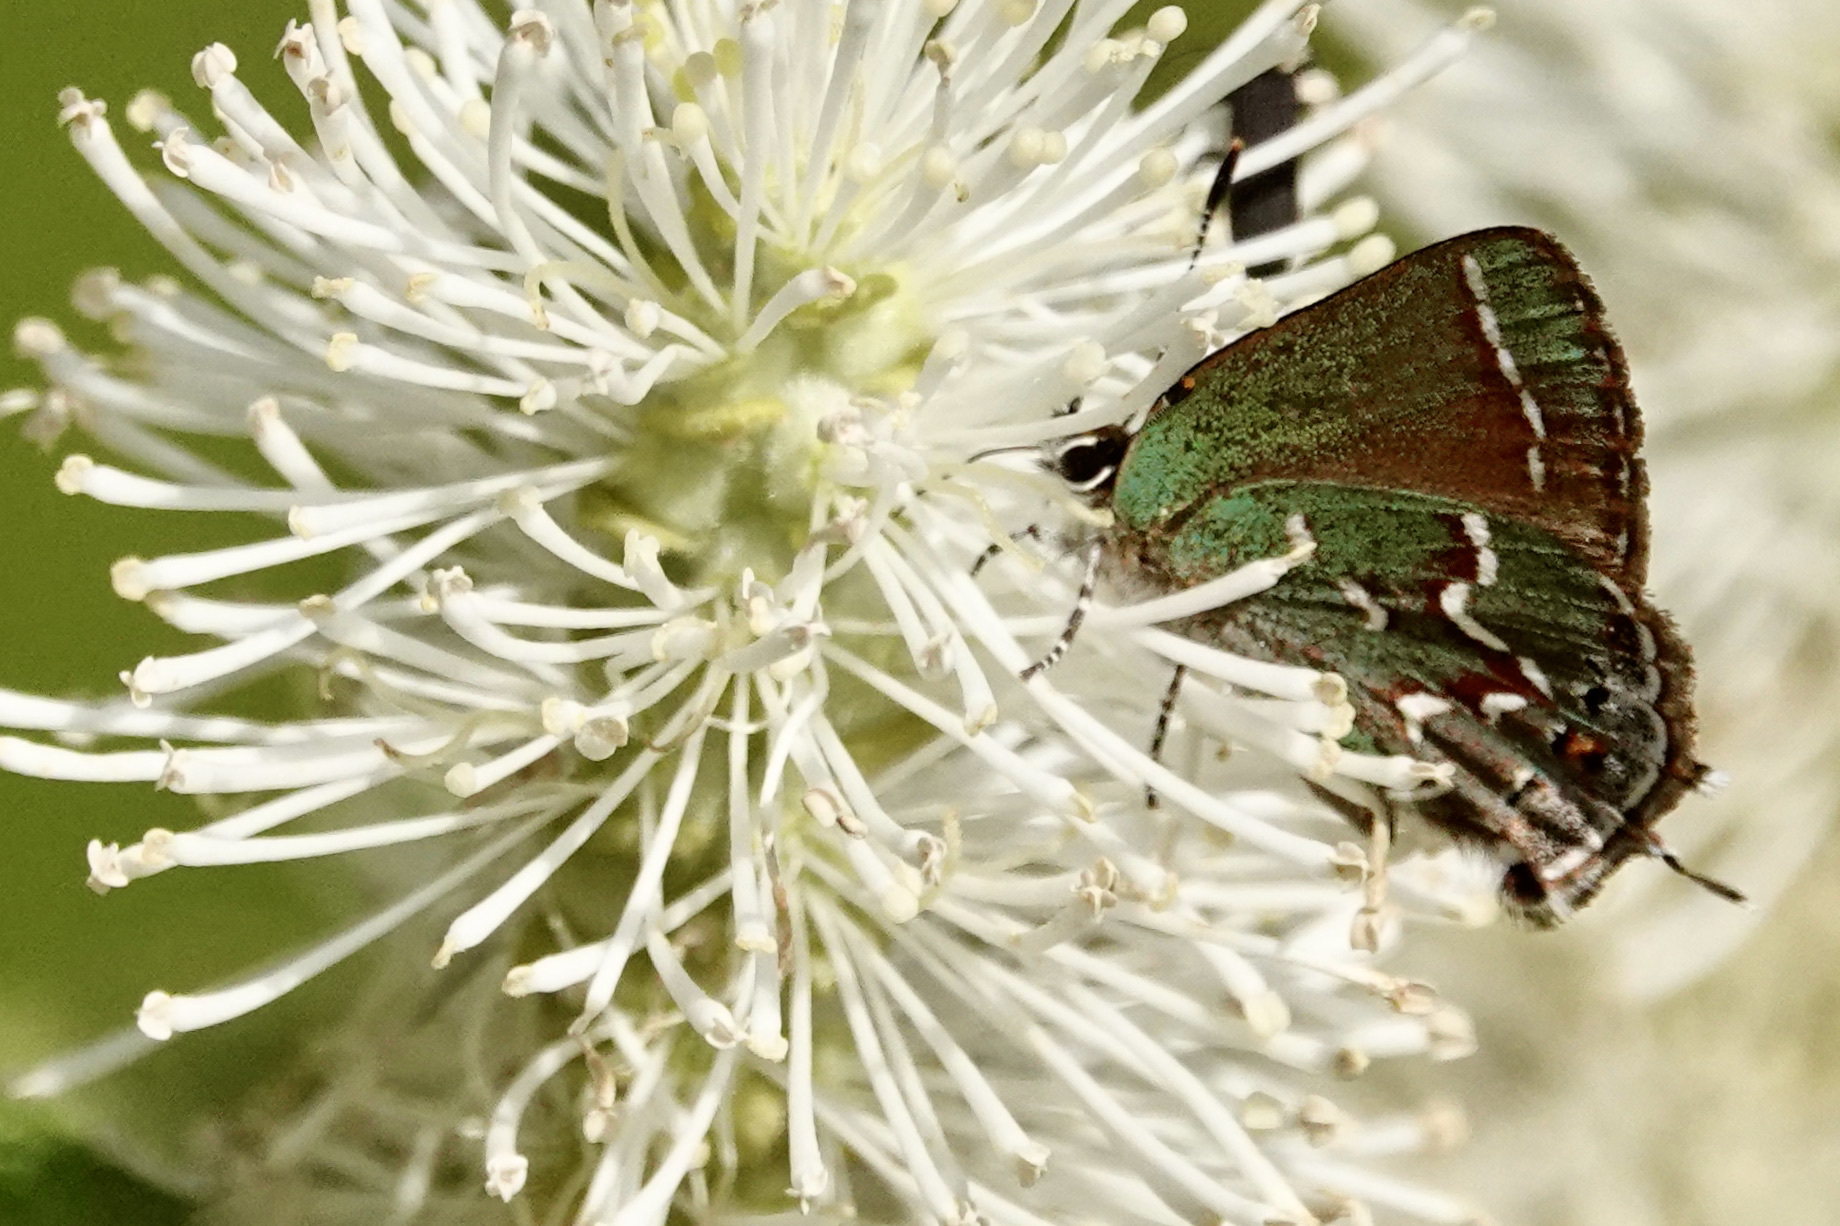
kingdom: Animalia
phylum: Arthropoda
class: Insecta
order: Lepidoptera
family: Lycaenidae
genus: Mitoura
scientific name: Mitoura gryneus
